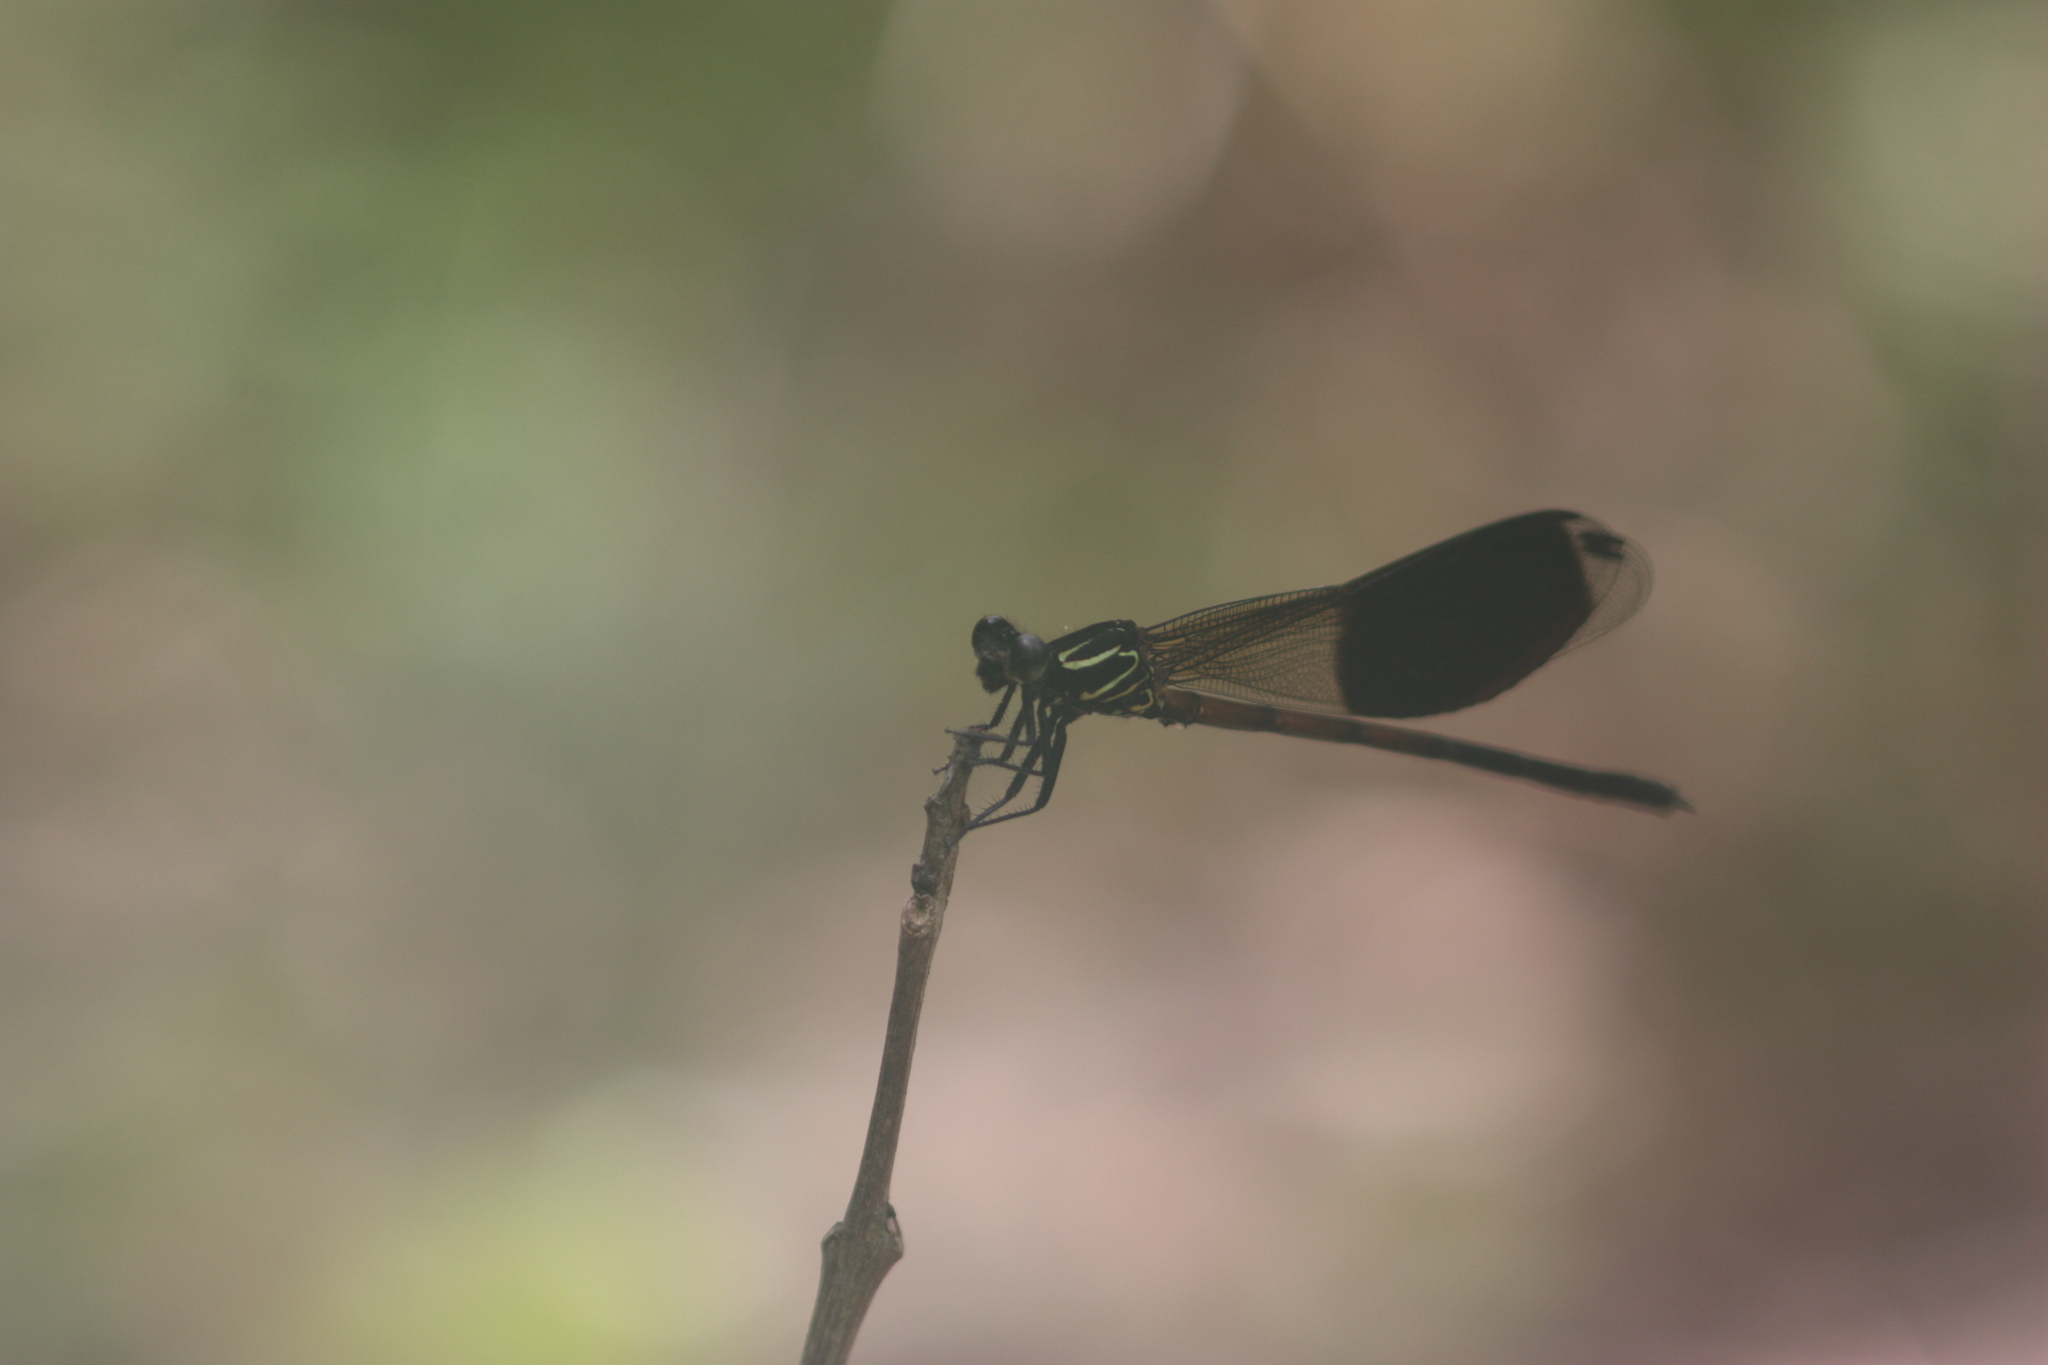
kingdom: Animalia
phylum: Arthropoda
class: Insecta
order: Odonata
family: Euphaeidae
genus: Euphaea
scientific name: Euphaea formosa
